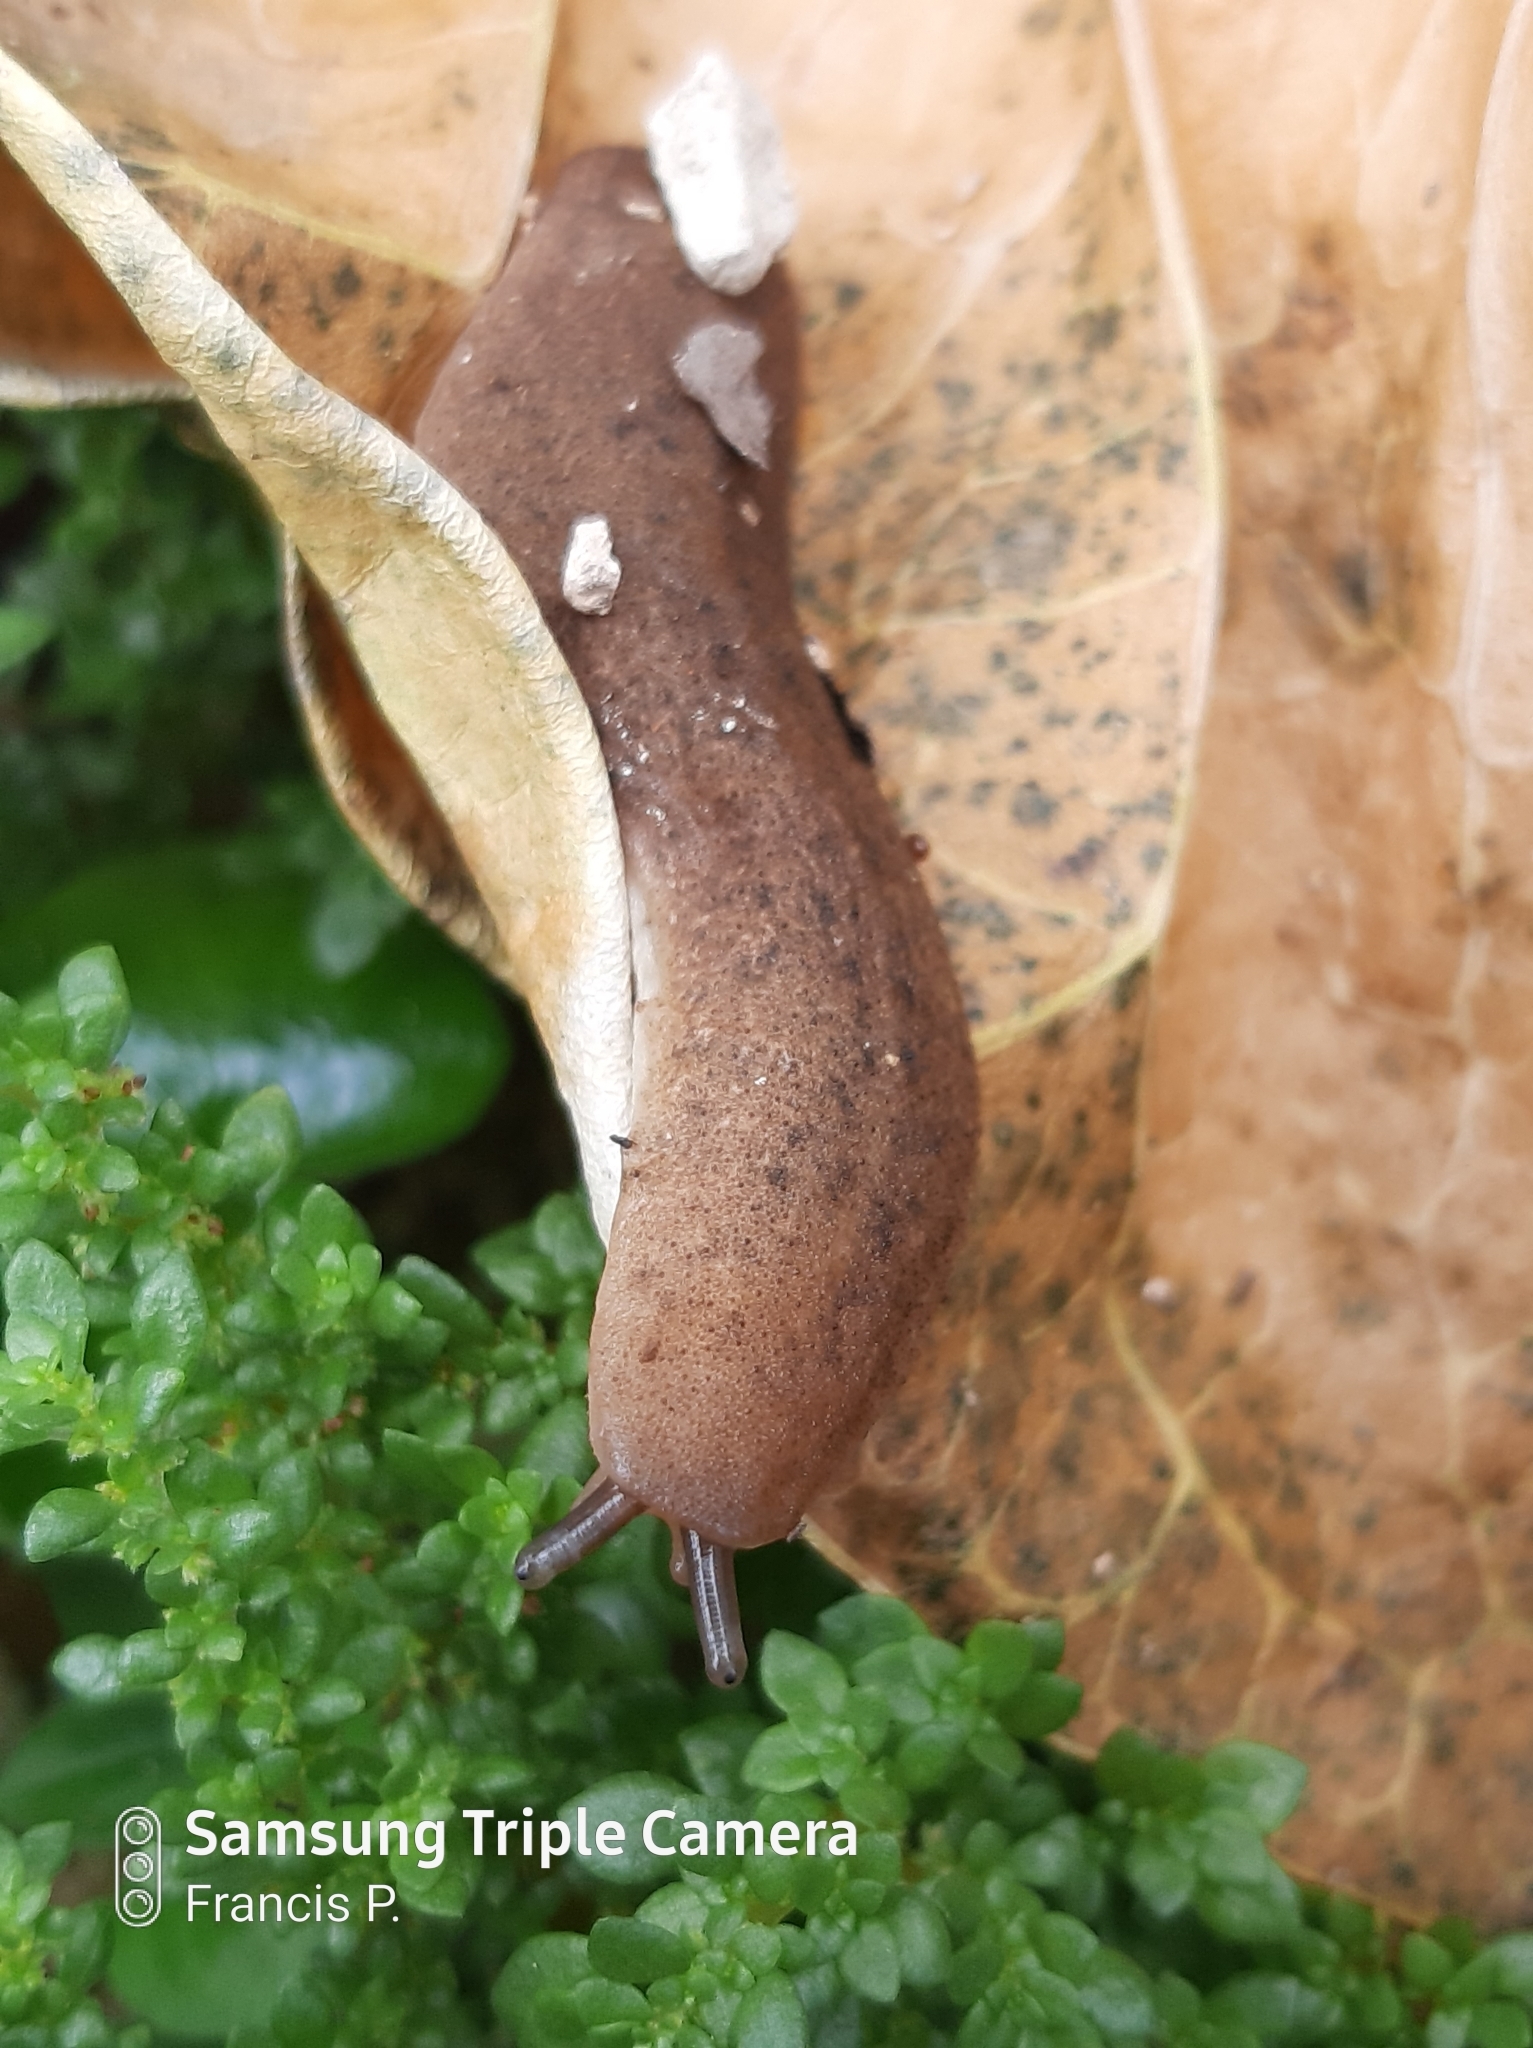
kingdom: Animalia
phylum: Mollusca
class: Gastropoda
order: Systellommatophora
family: Veronicellidae
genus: Diplosolenodes
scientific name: Diplosolenodes occidentalis
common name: Spotted leatherleaf
